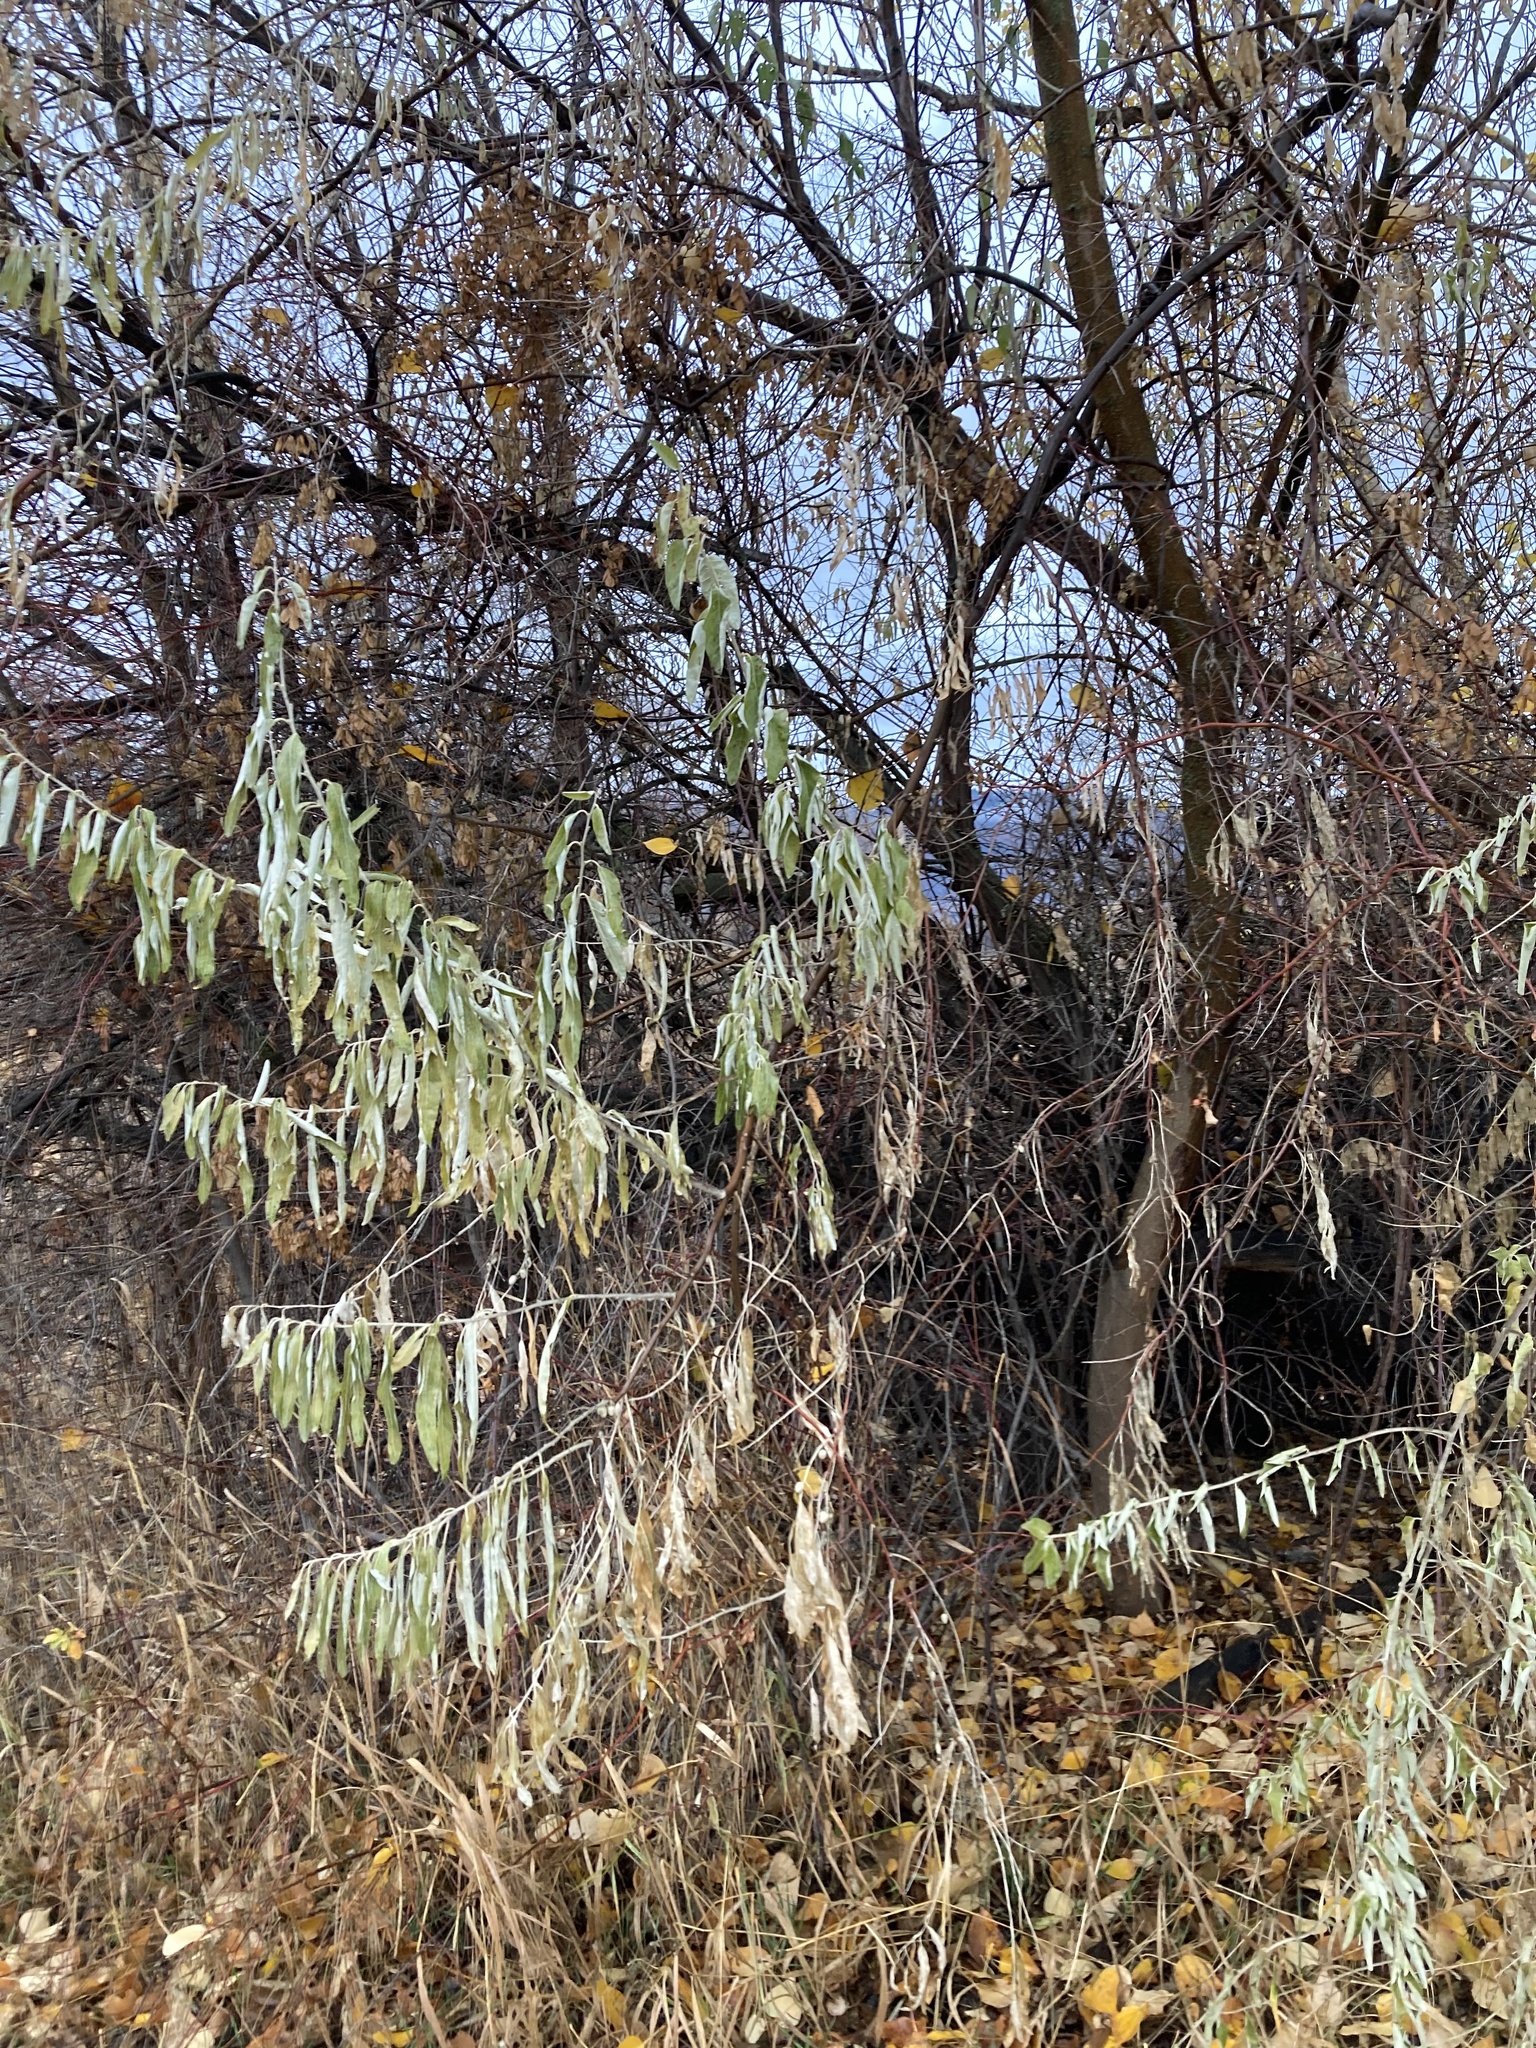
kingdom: Plantae
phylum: Tracheophyta
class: Magnoliopsida
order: Rosales
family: Elaeagnaceae
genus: Elaeagnus
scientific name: Elaeagnus angustifolia
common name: Russian olive
